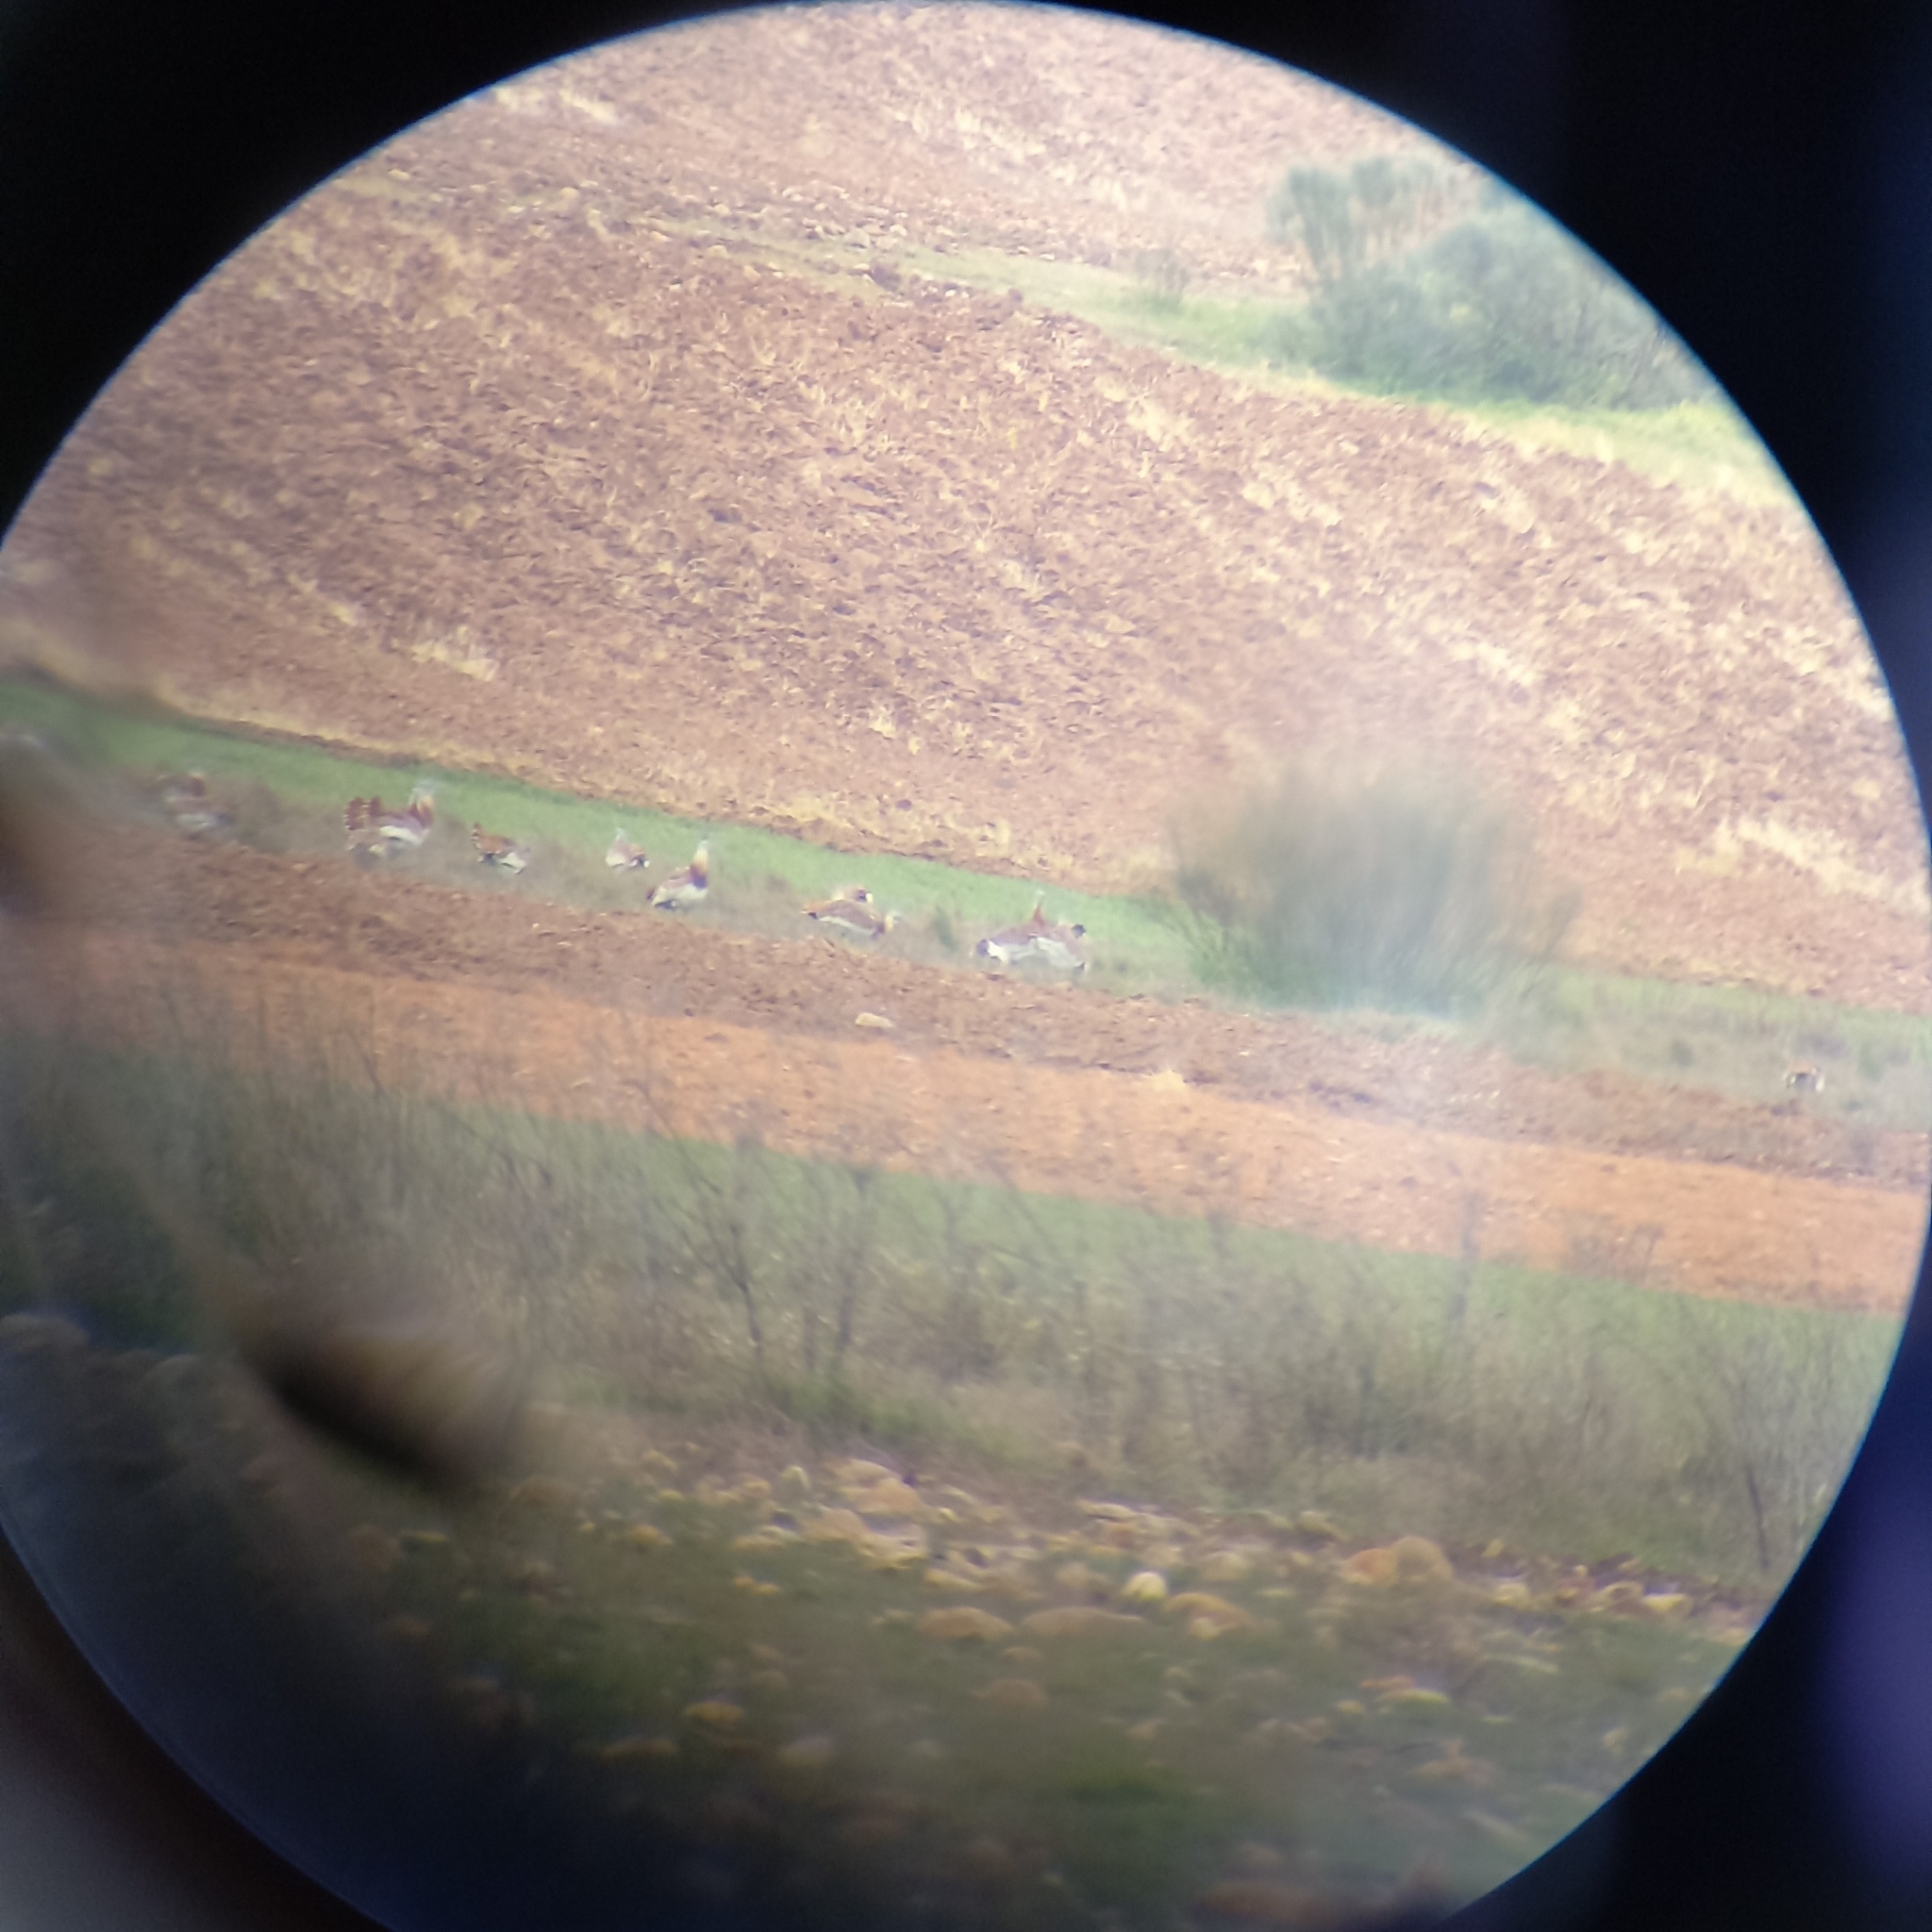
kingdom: Animalia
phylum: Chordata
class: Aves
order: Otidiformes
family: Otididae
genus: Otis
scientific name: Otis tarda
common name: Great bustard
